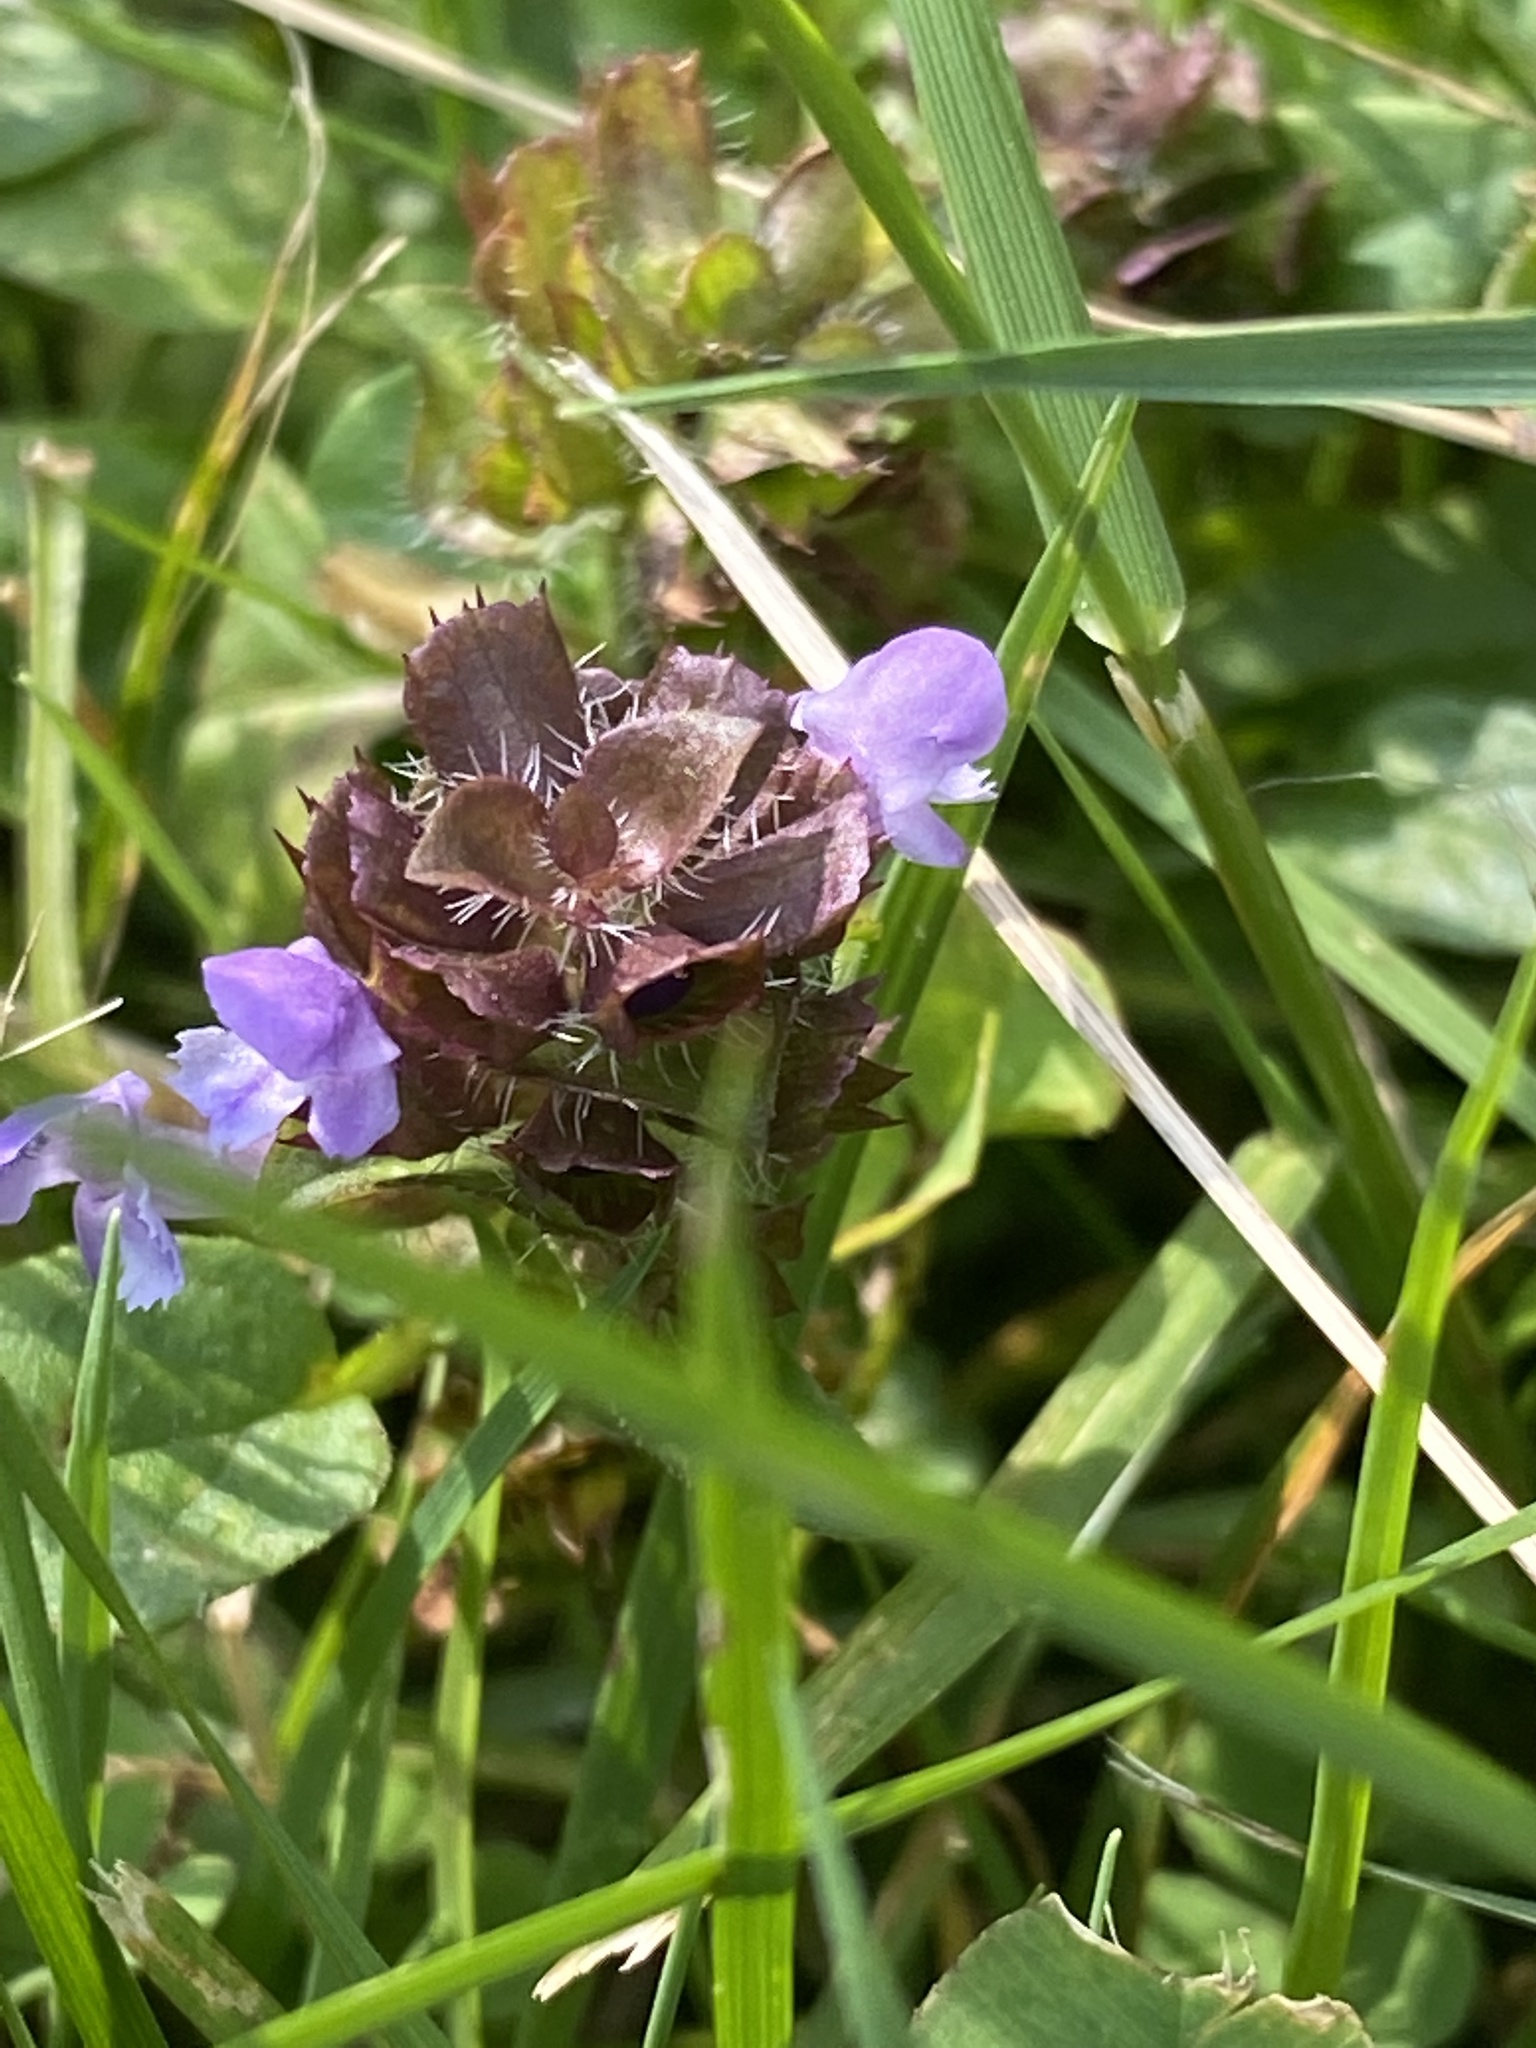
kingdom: Plantae
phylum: Tracheophyta
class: Magnoliopsida
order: Lamiales
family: Lamiaceae
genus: Prunella
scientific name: Prunella vulgaris
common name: Heal-all
